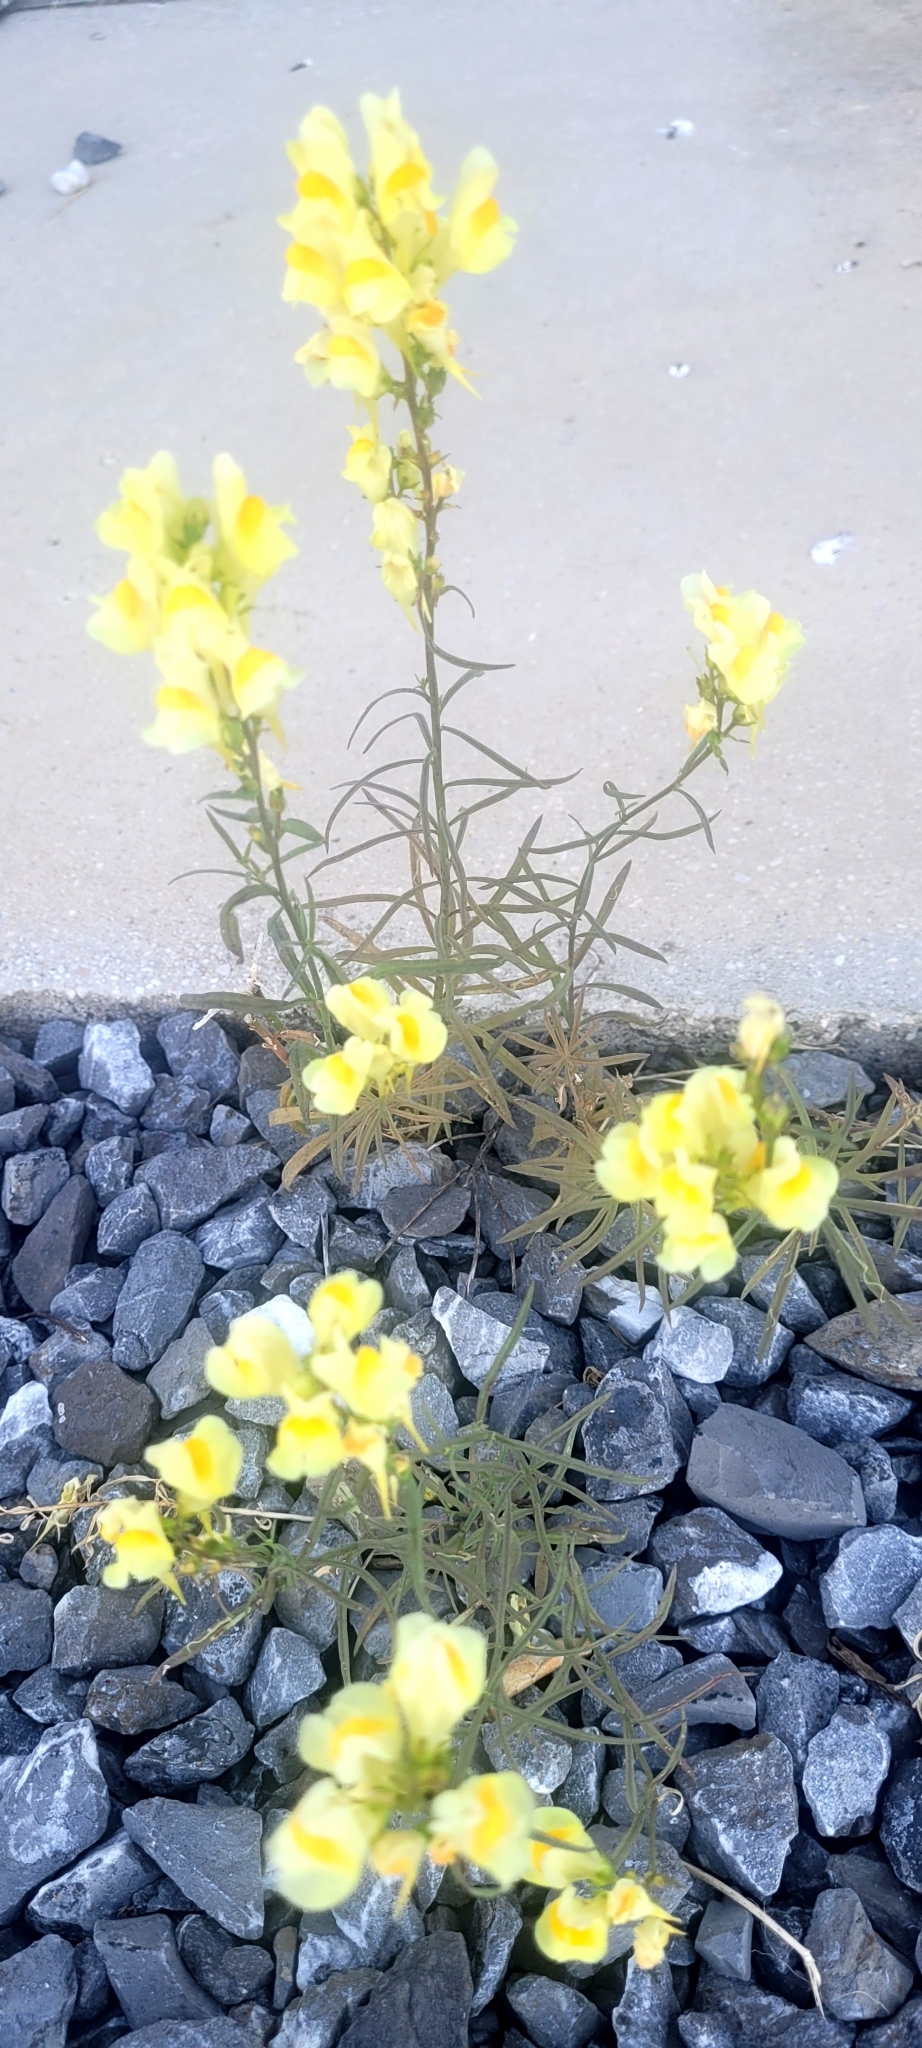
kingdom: Plantae
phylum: Tracheophyta
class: Magnoliopsida
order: Lamiales
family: Plantaginaceae
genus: Linaria
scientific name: Linaria vulgaris
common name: Butter and eggs
